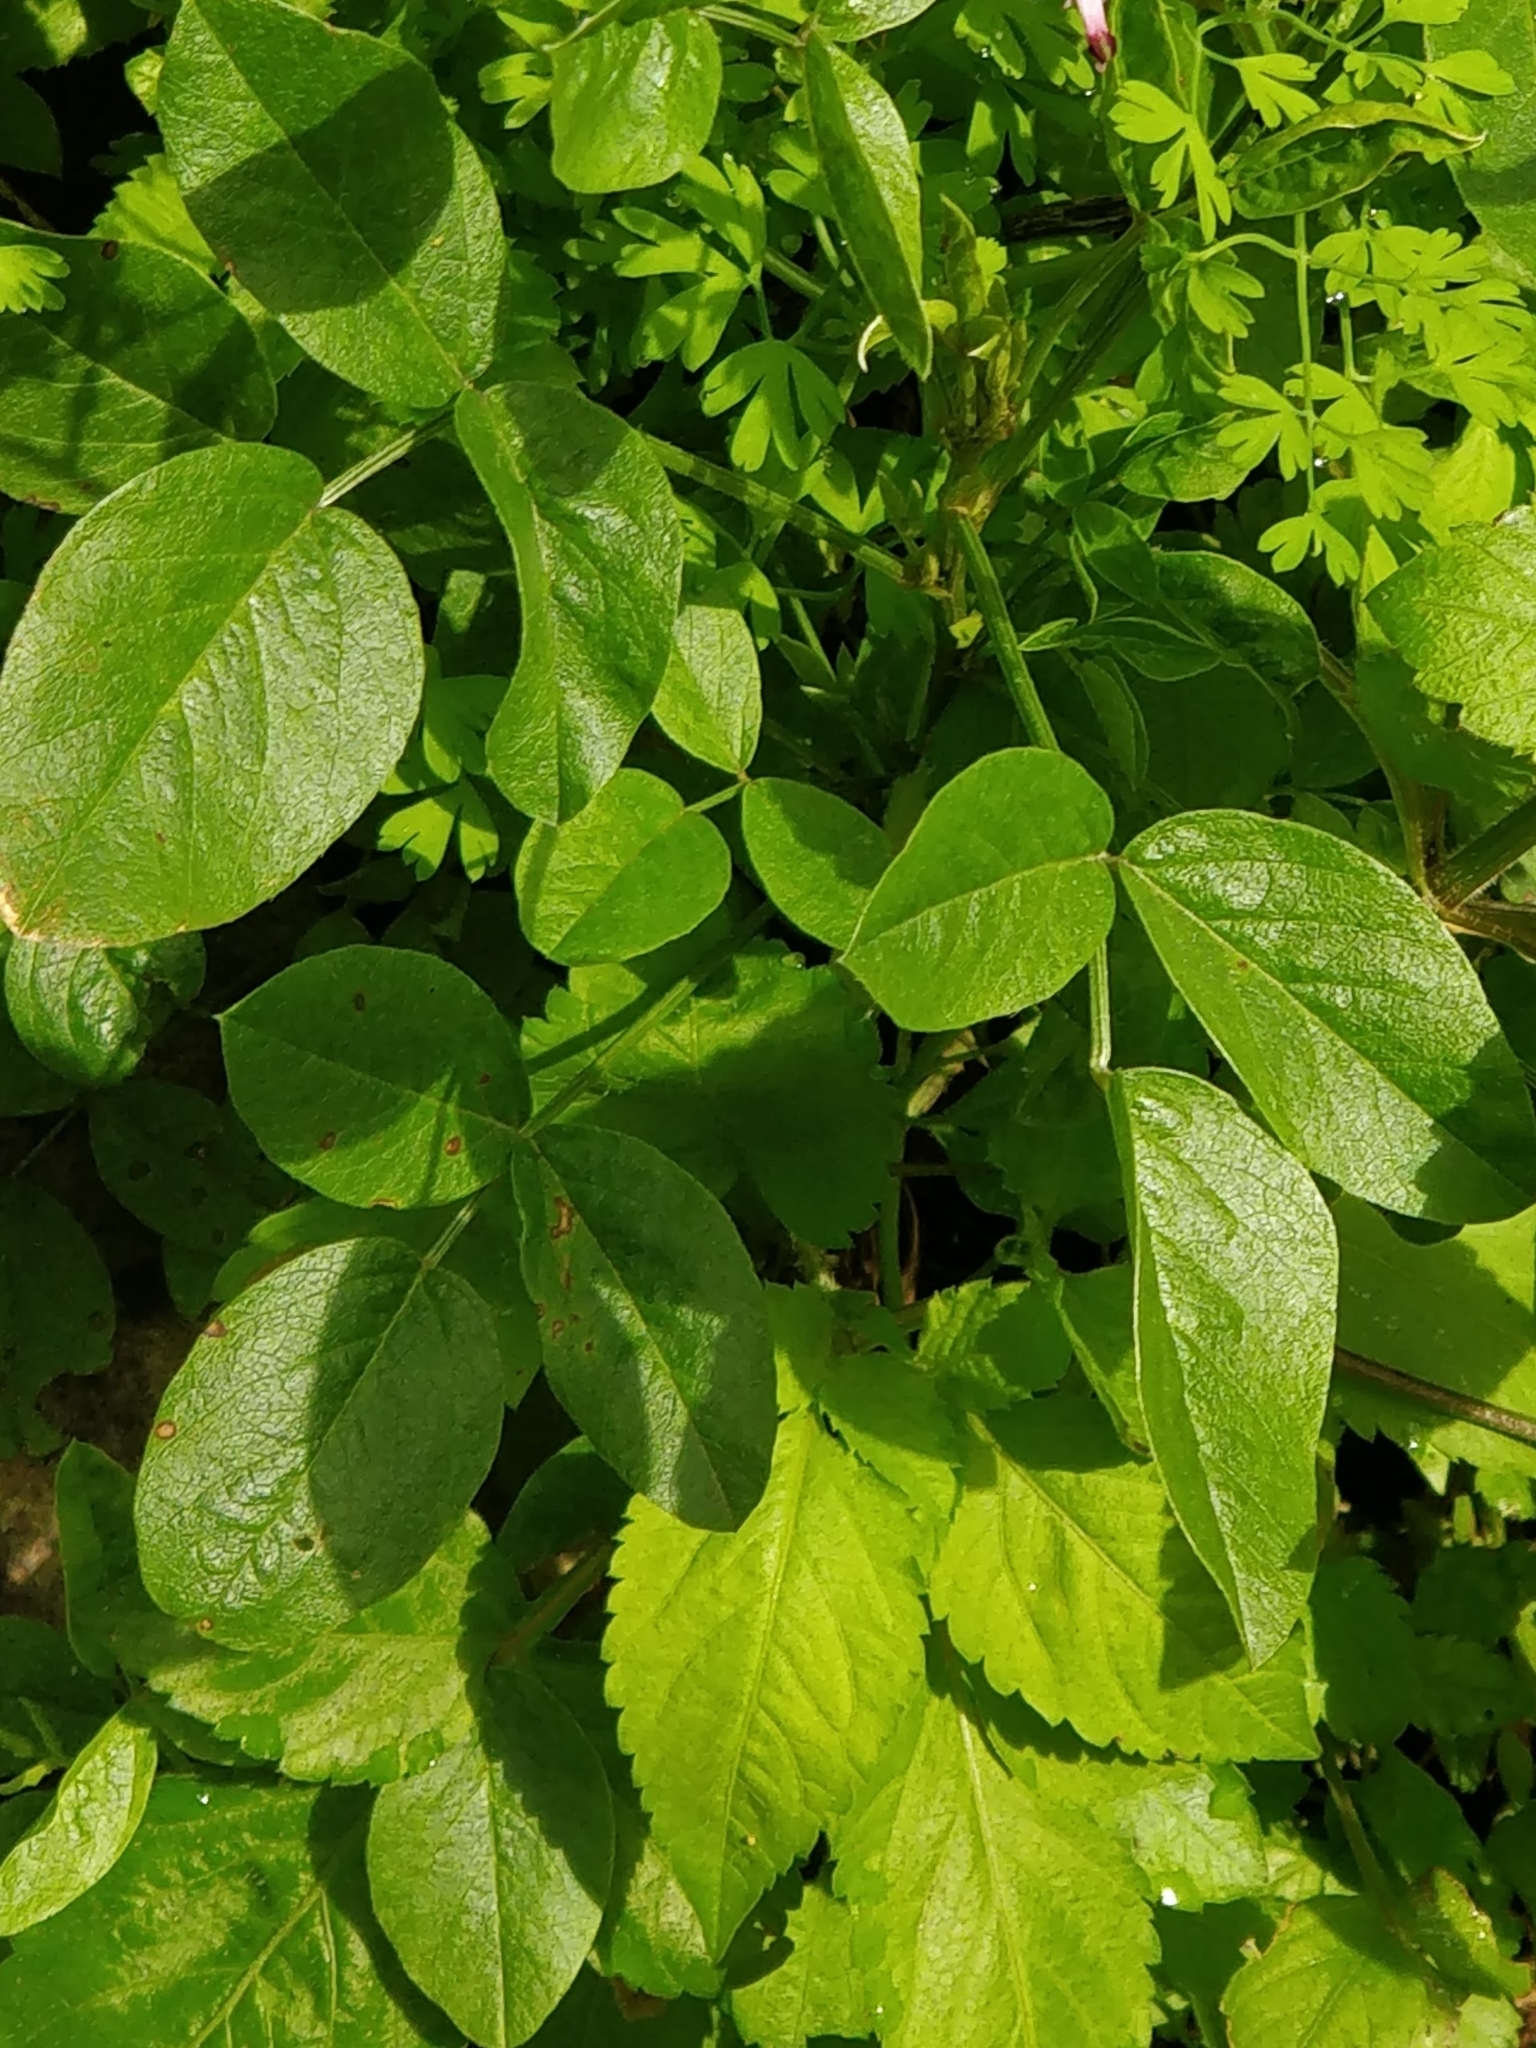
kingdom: Plantae
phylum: Tracheophyta
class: Magnoliopsida
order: Fabales
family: Fabaceae
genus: Bituminaria
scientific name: Bituminaria bituminosa
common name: Arabian pea
